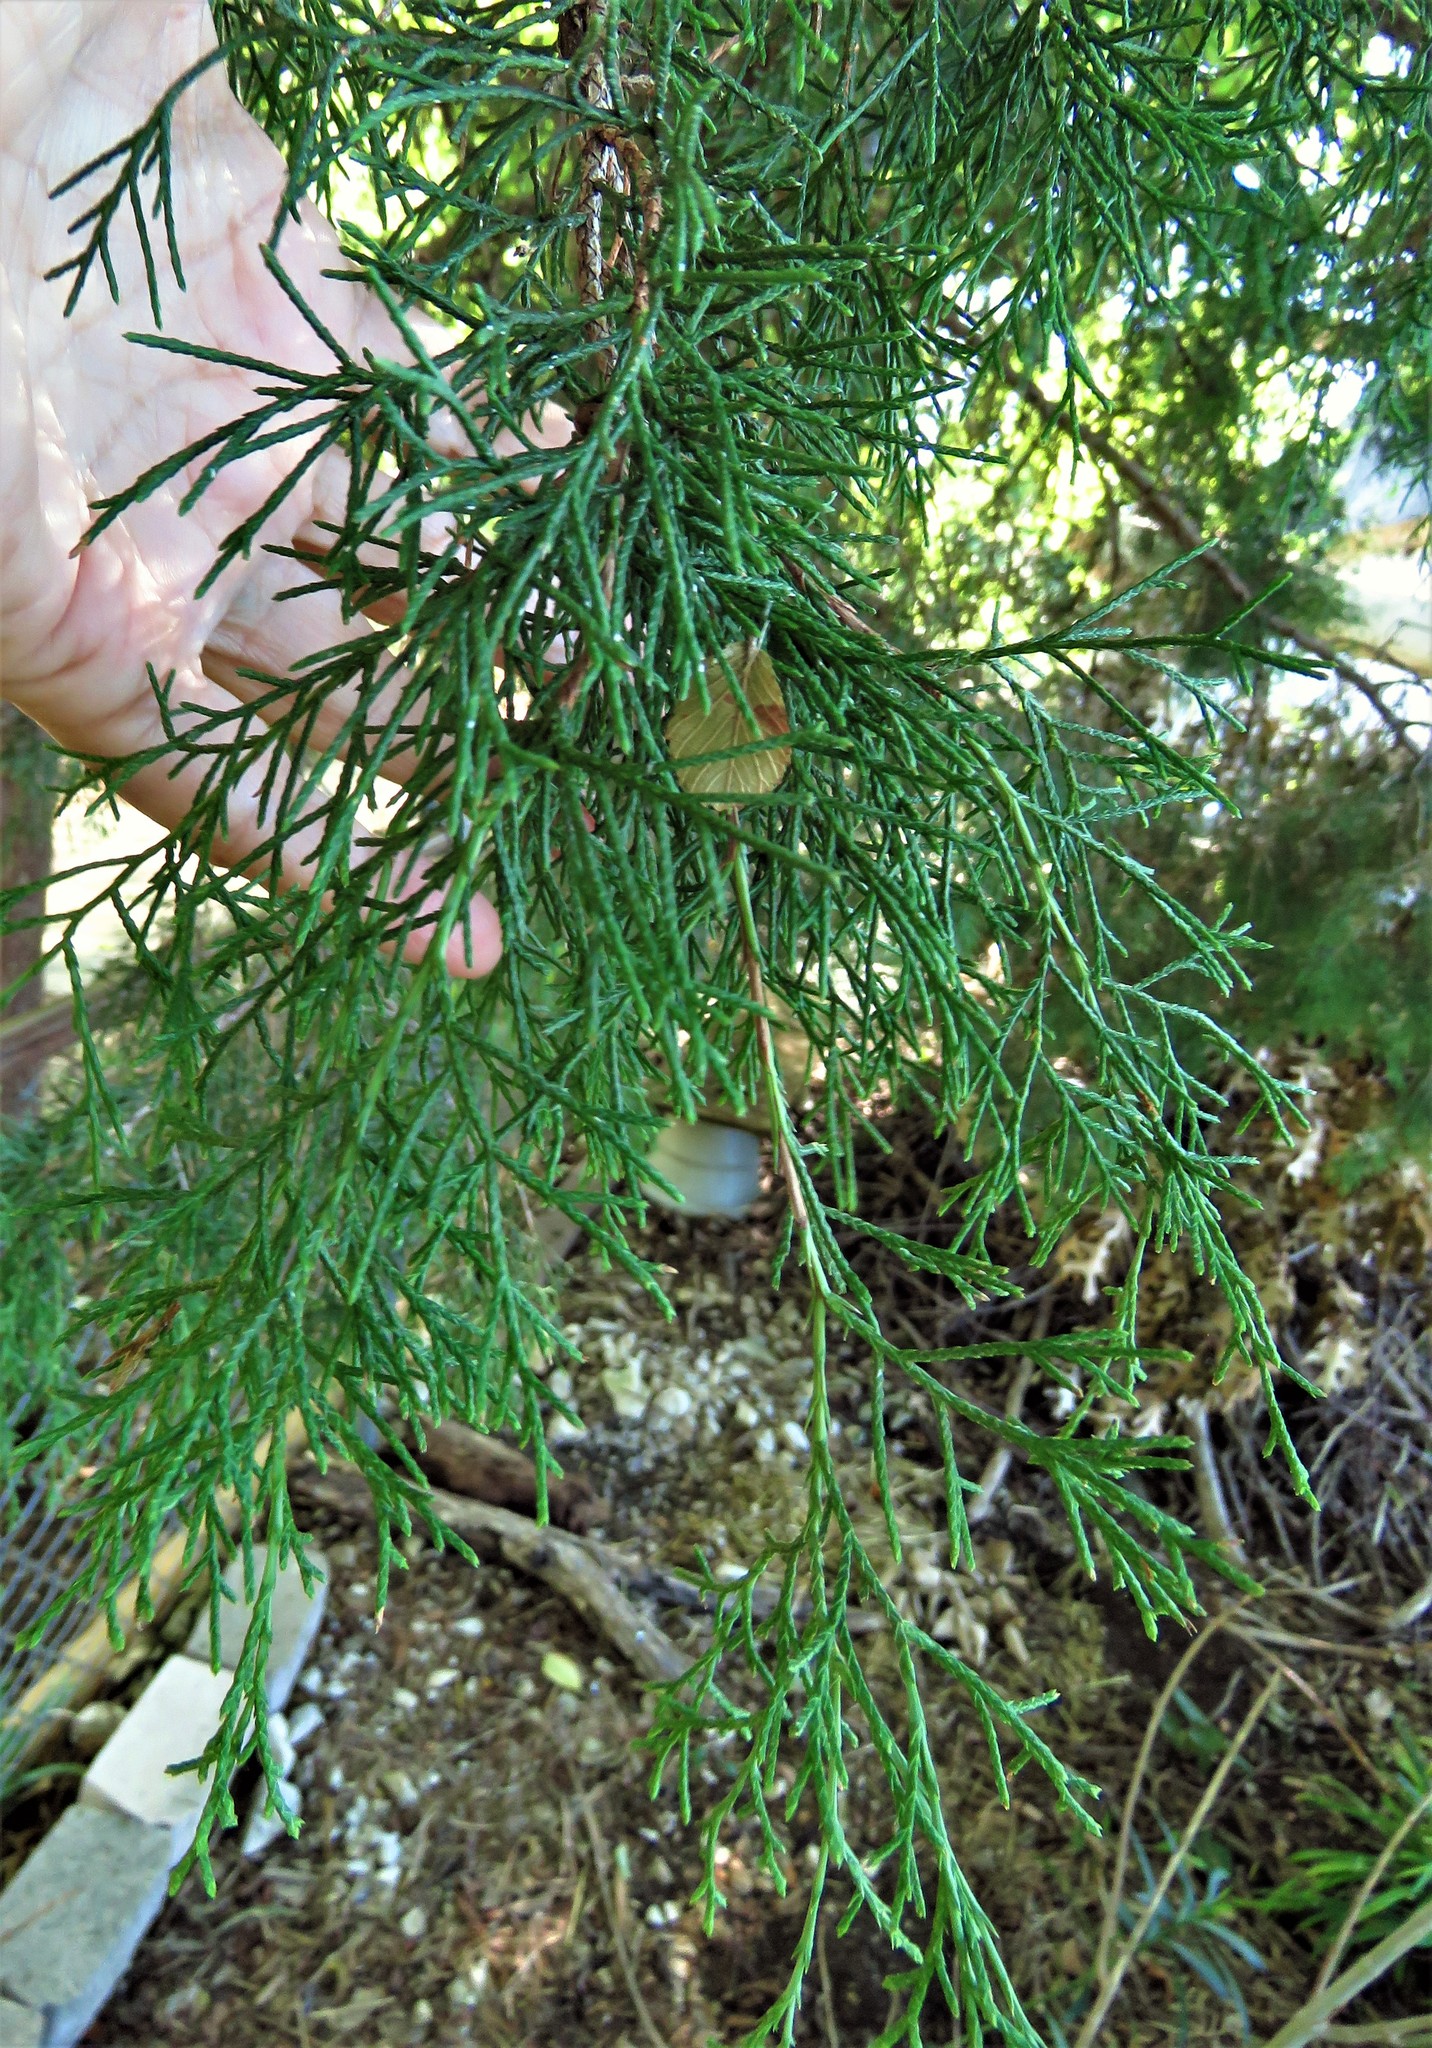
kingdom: Plantae
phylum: Tracheophyta
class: Pinopsida
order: Pinales
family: Cupressaceae
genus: Juniperus
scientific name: Juniperus virginiana
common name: Red juniper
